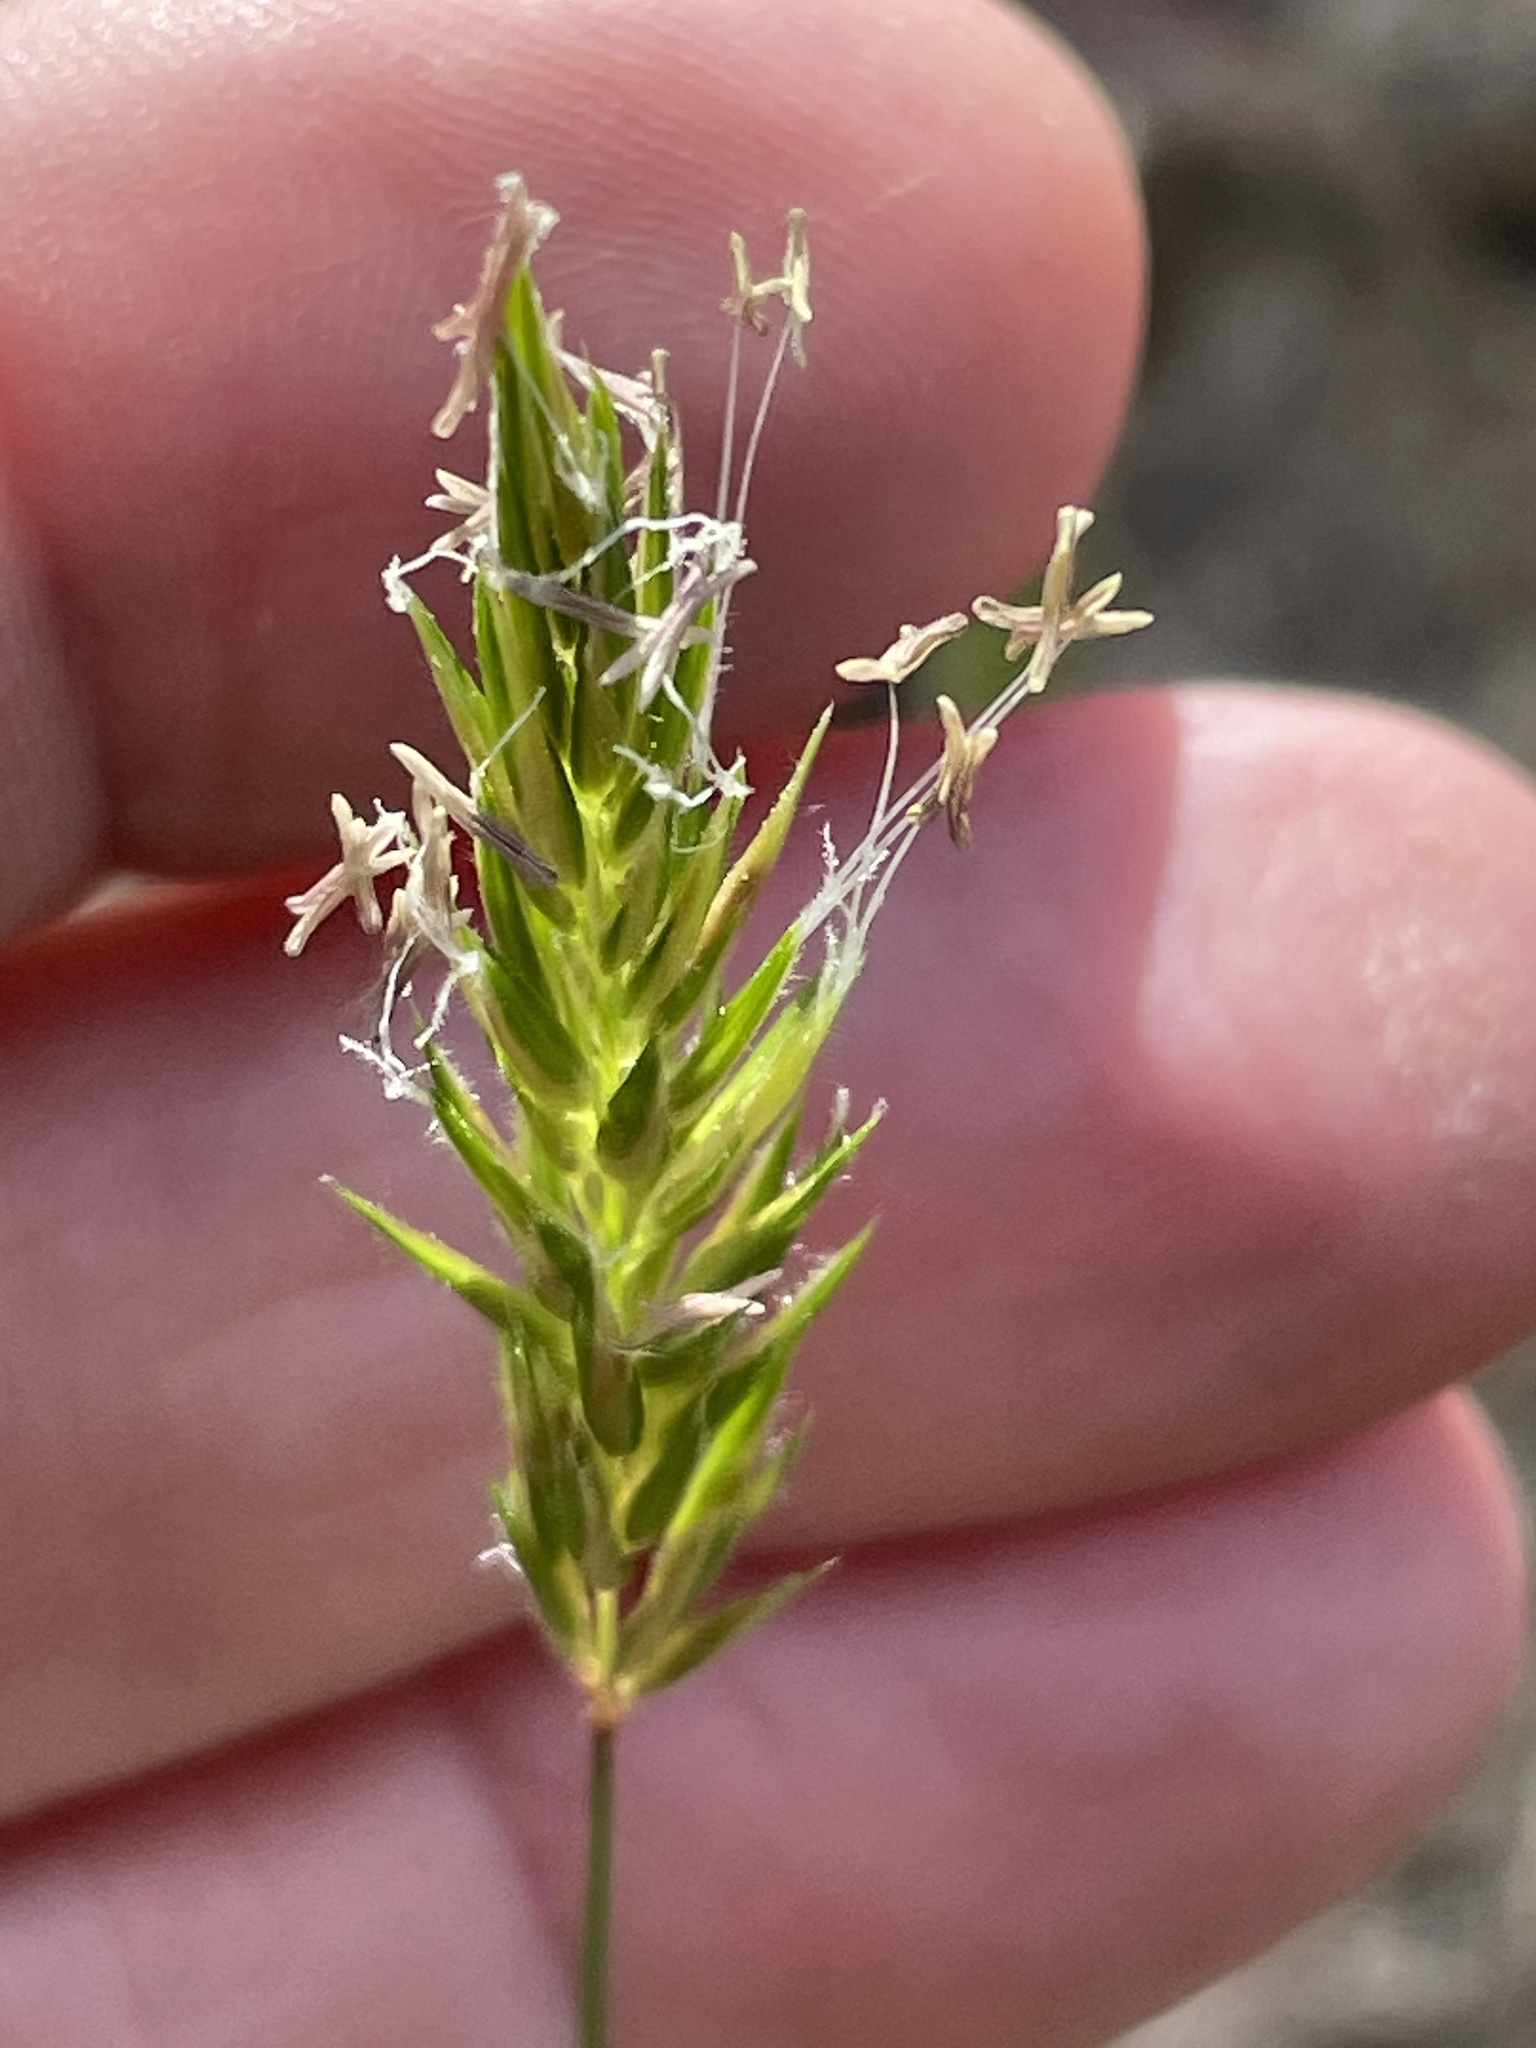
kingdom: Plantae
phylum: Tracheophyta
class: Liliopsida
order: Poales
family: Poaceae
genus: Anthoxanthum
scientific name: Anthoxanthum odoratum
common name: Sweet vernalgrass
